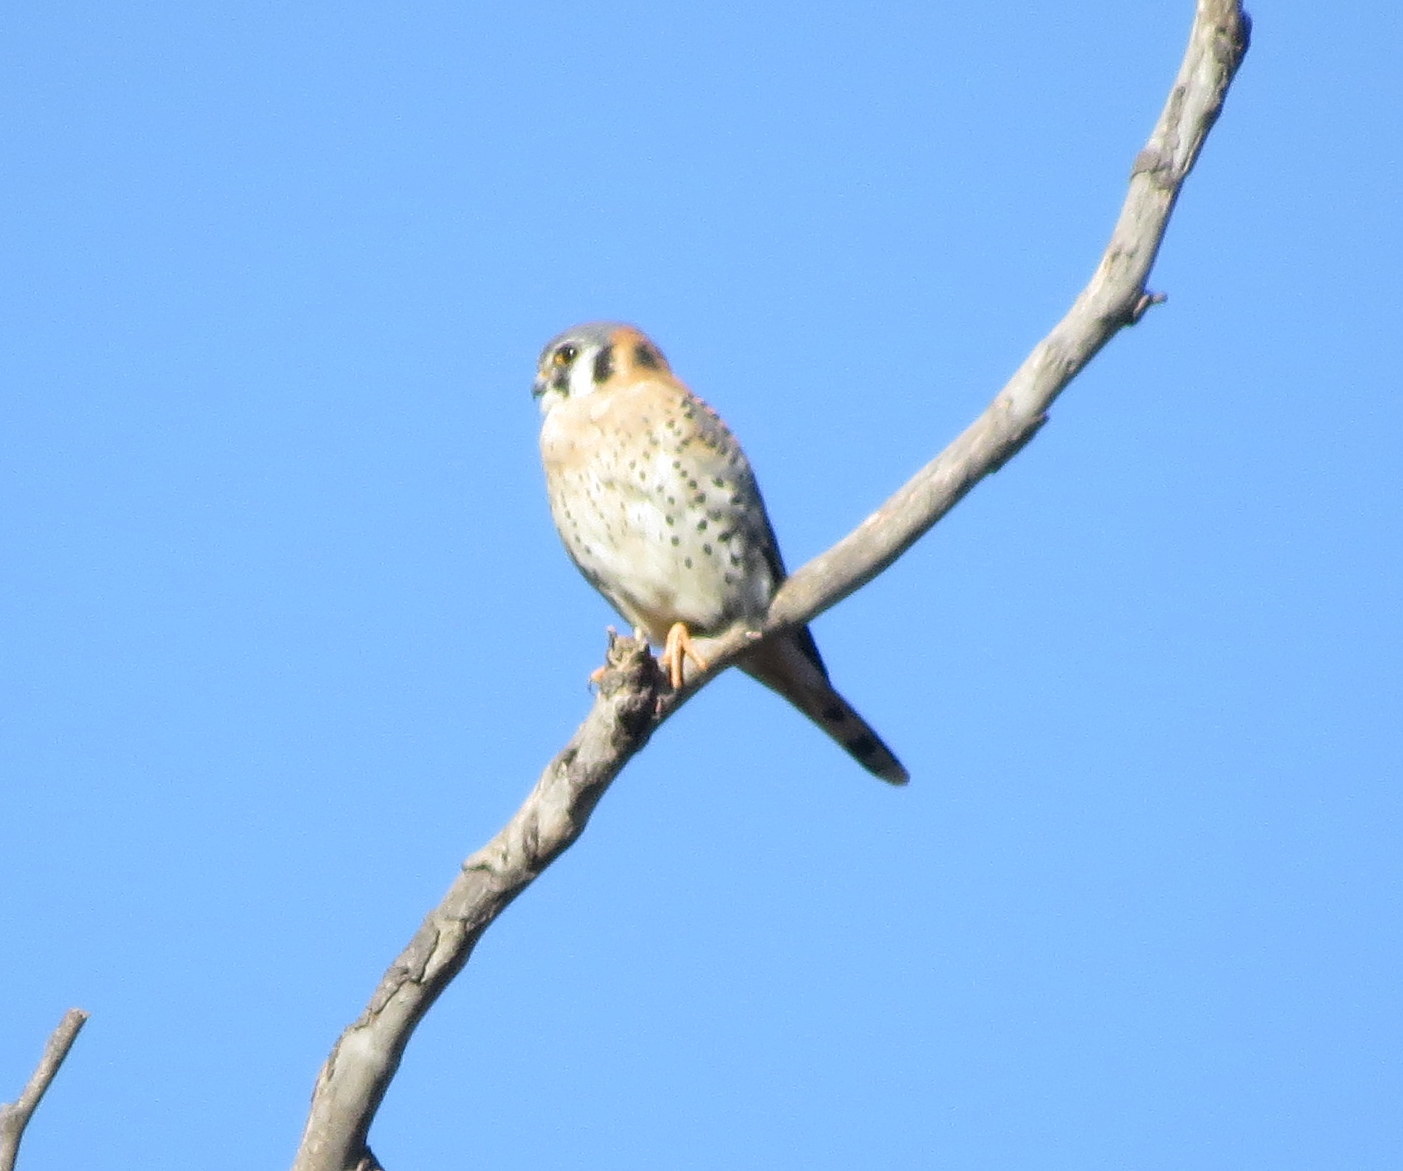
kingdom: Animalia
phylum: Chordata
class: Aves
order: Falconiformes
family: Falconidae
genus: Falco
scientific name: Falco sparverius
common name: American kestrel
